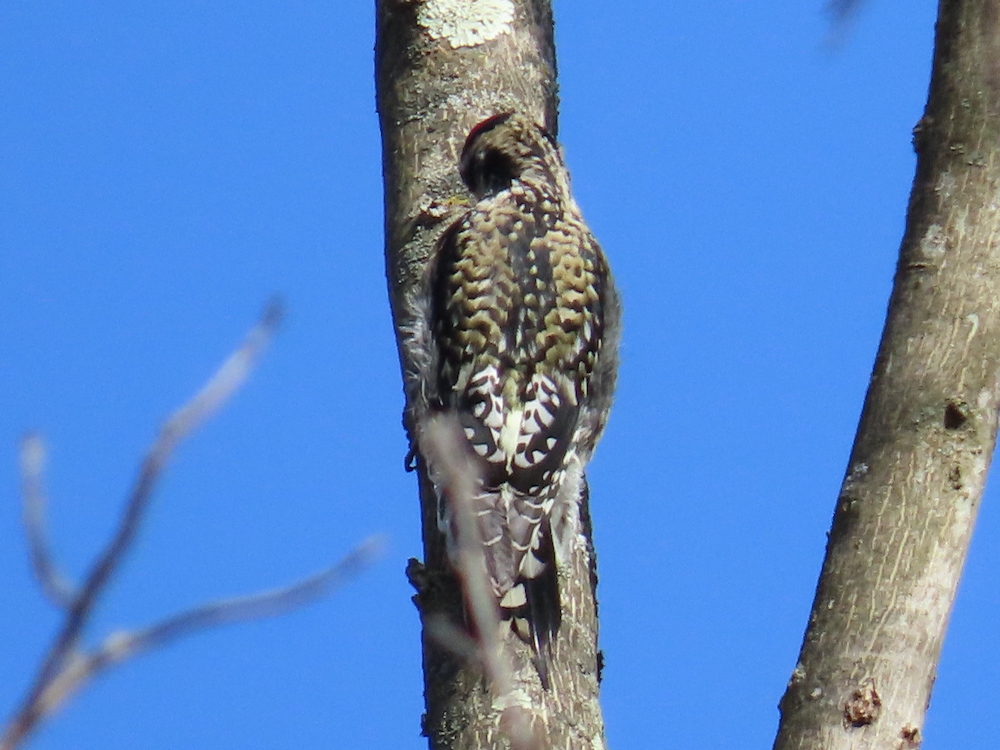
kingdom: Animalia
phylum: Chordata
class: Aves
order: Piciformes
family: Picidae
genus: Sphyrapicus
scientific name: Sphyrapicus varius
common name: Yellow-bellied sapsucker
